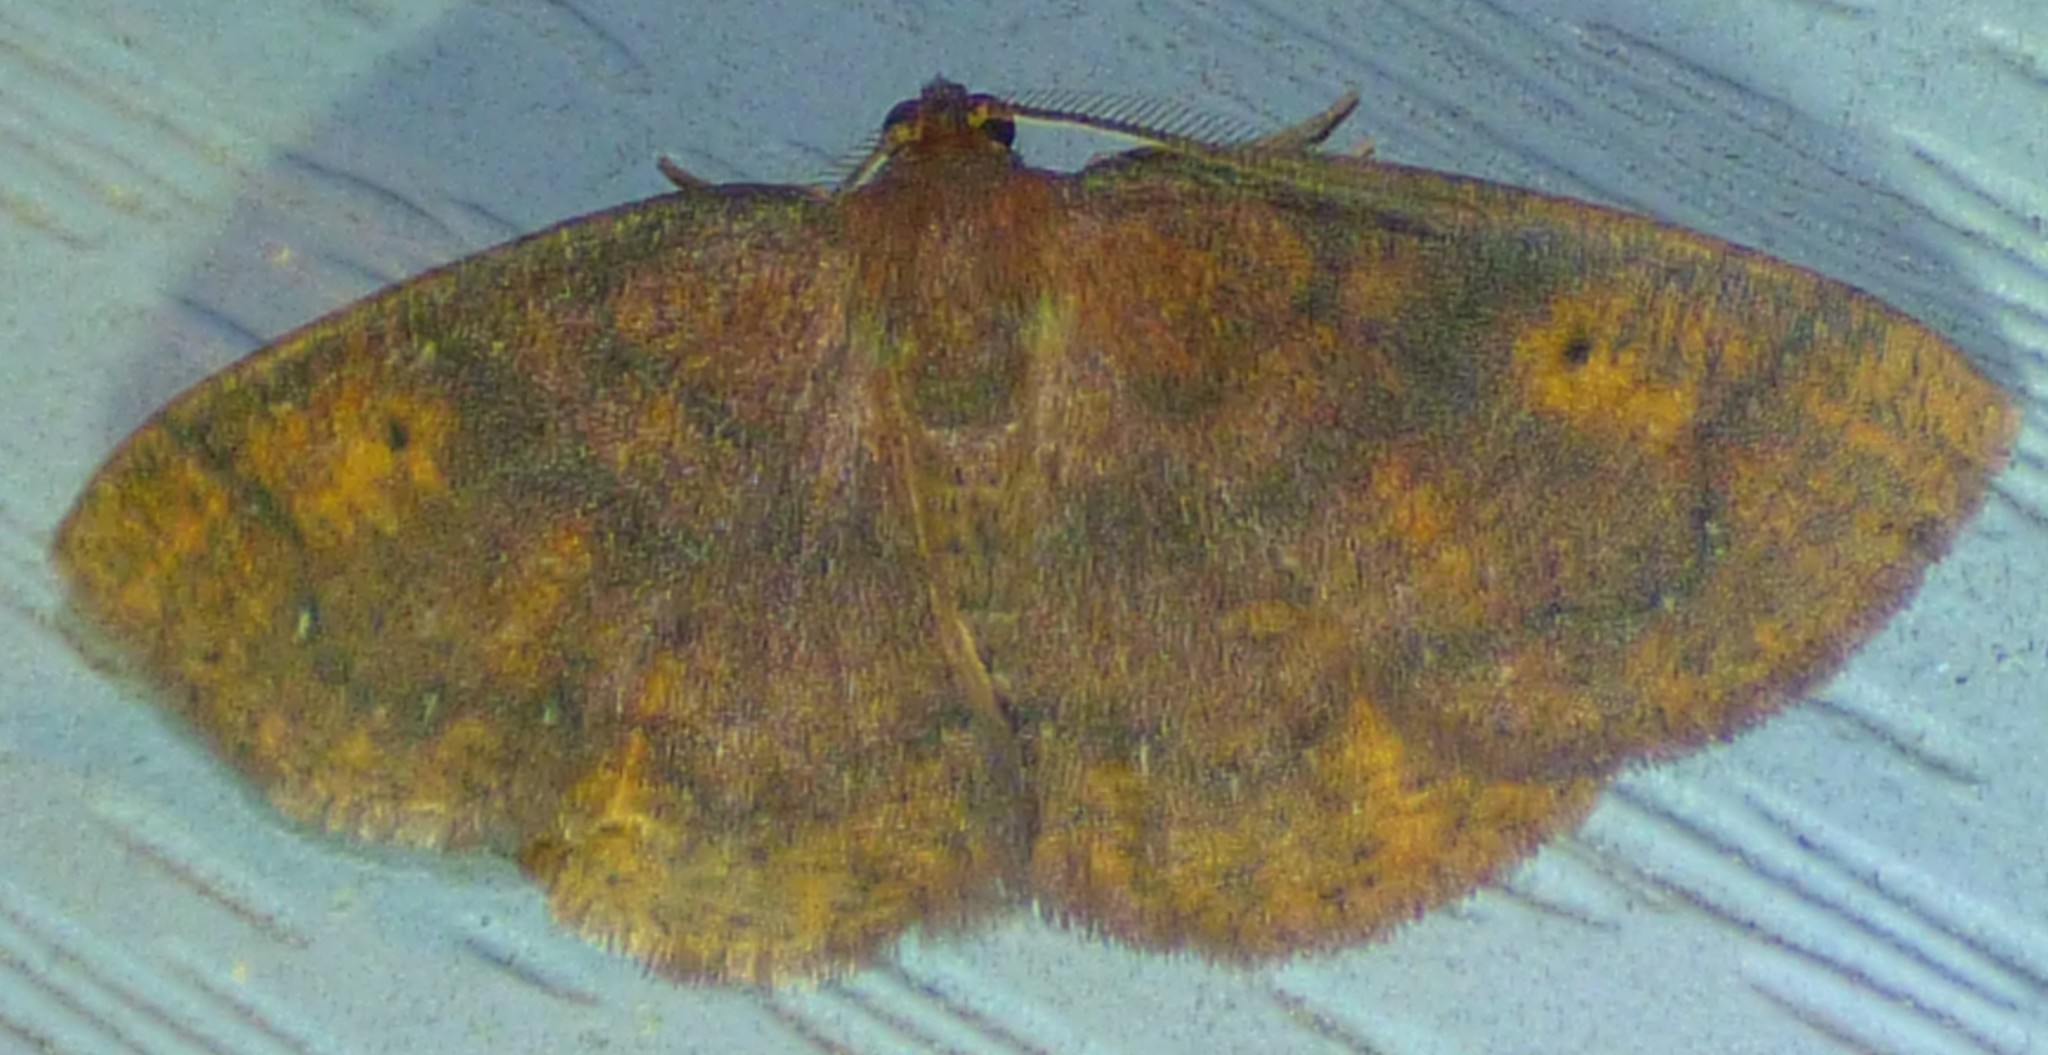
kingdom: Animalia
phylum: Arthropoda
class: Insecta
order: Lepidoptera
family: Geometridae
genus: Ilexia
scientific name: Ilexia intractata
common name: Black-dotted ruddy moth
